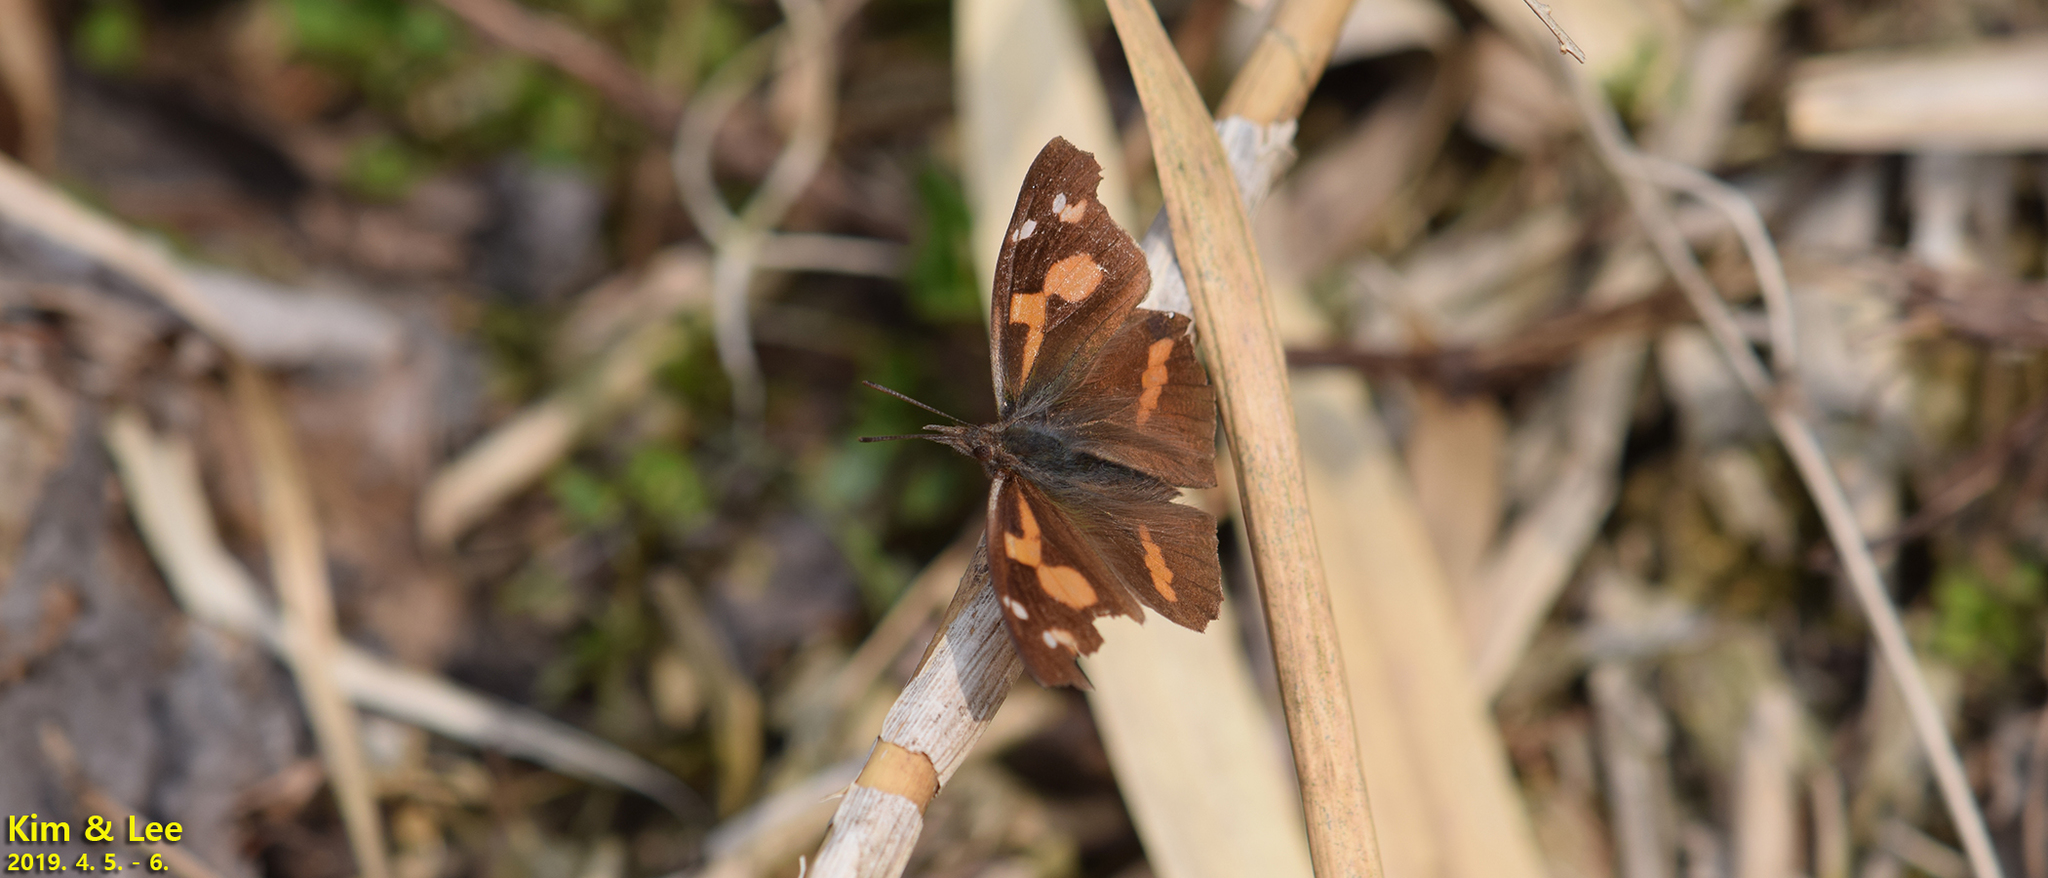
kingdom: Animalia
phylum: Arthropoda
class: Insecta
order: Lepidoptera
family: Nymphalidae
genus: Libythea
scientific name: Libythea lepita
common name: Common beak
